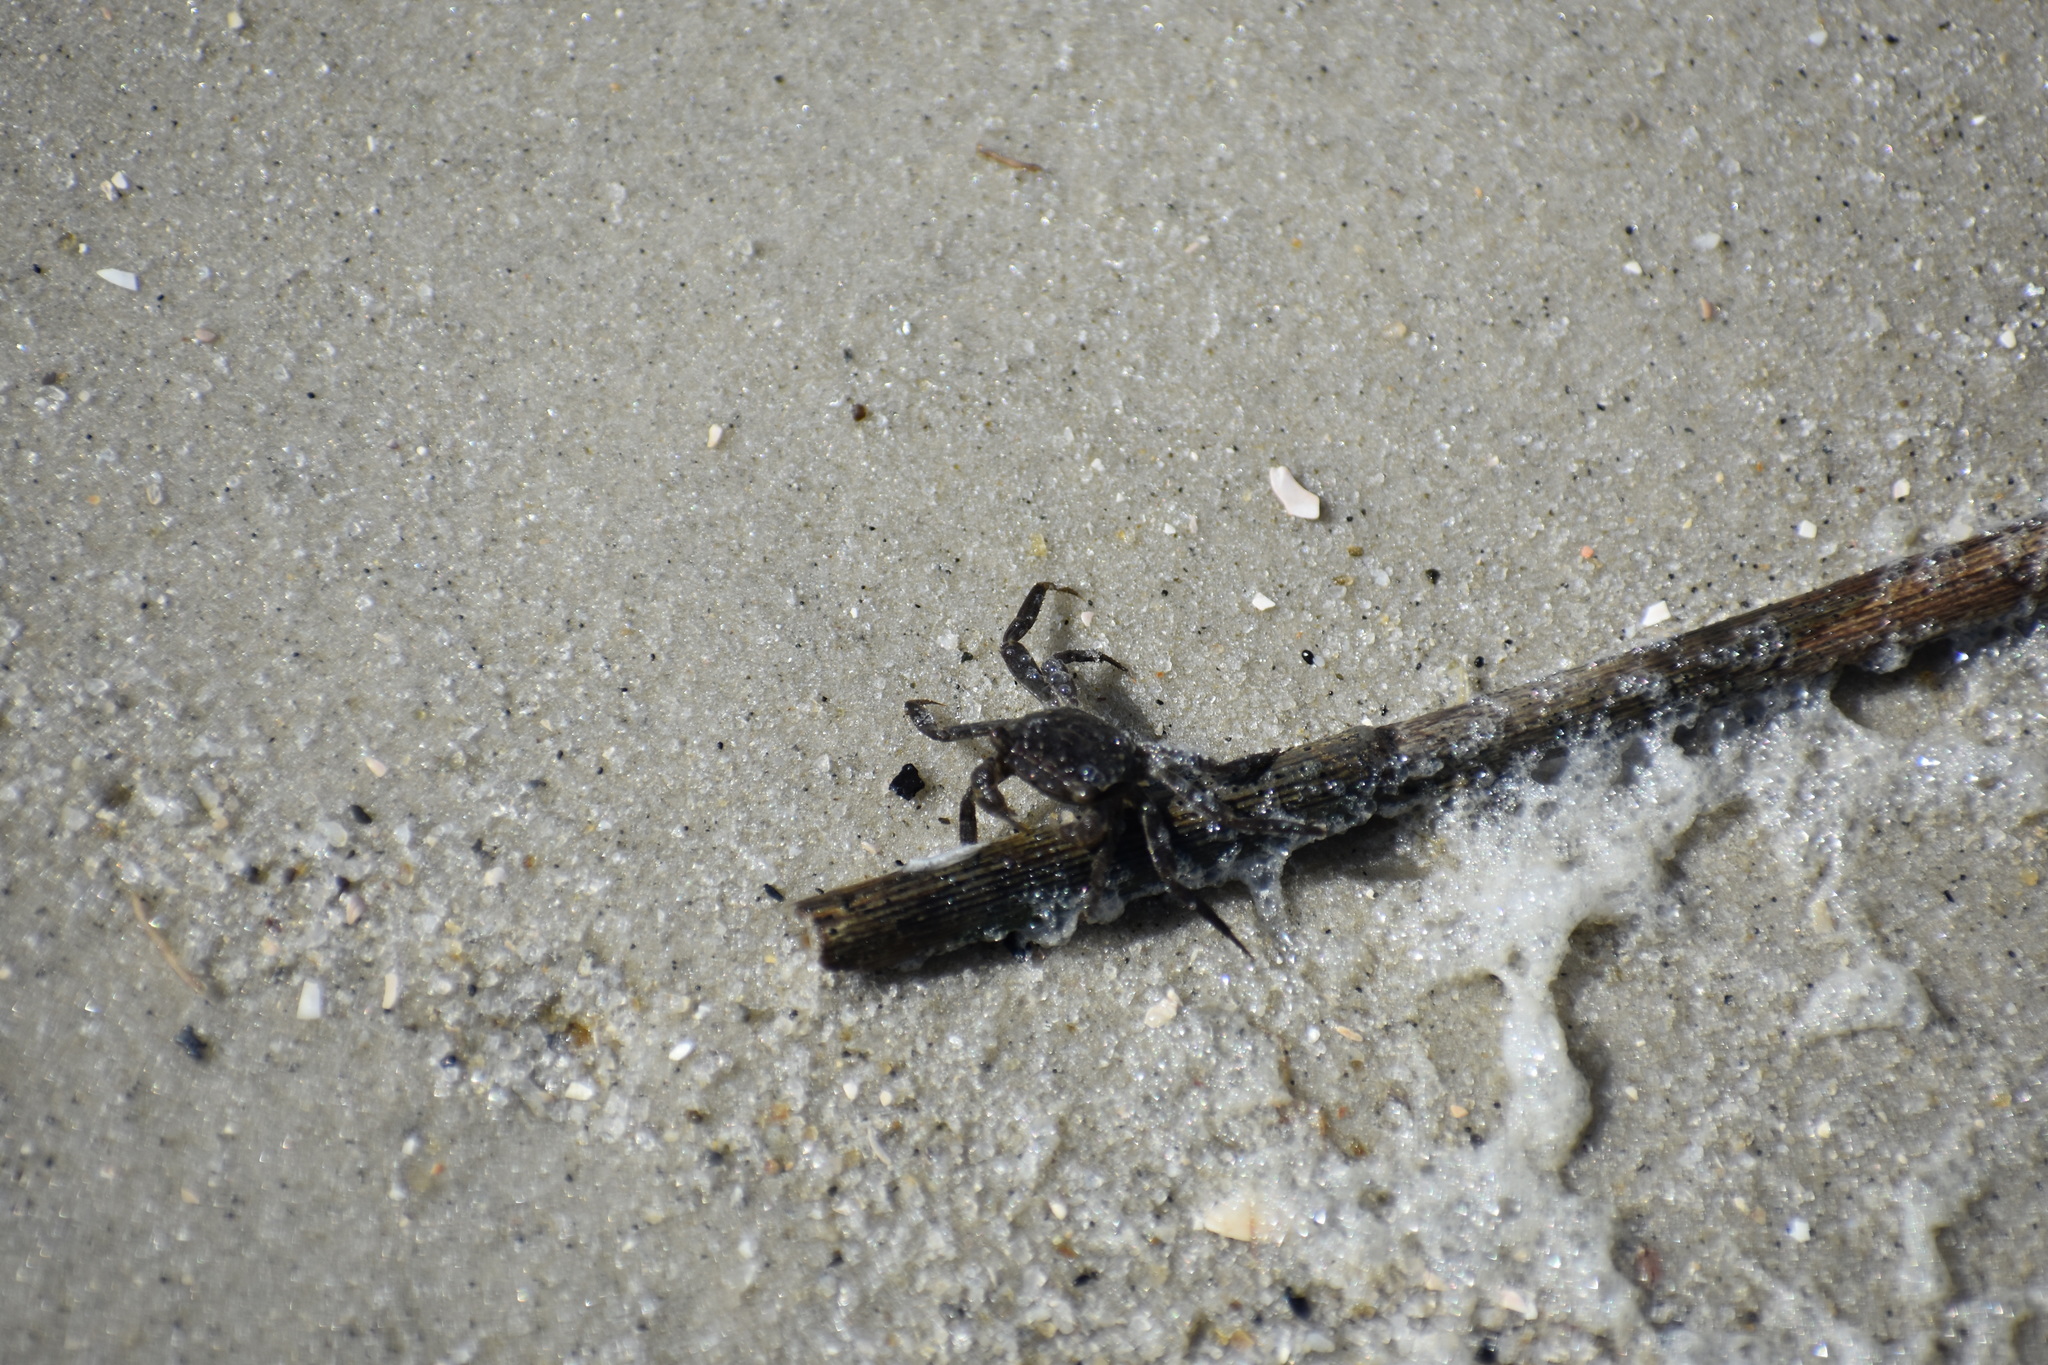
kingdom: Animalia
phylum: Arthropoda
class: Malacostraca
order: Decapoda
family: Sesarmidae
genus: Armases
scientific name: Armases cinereum
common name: Squareback marsh crab
